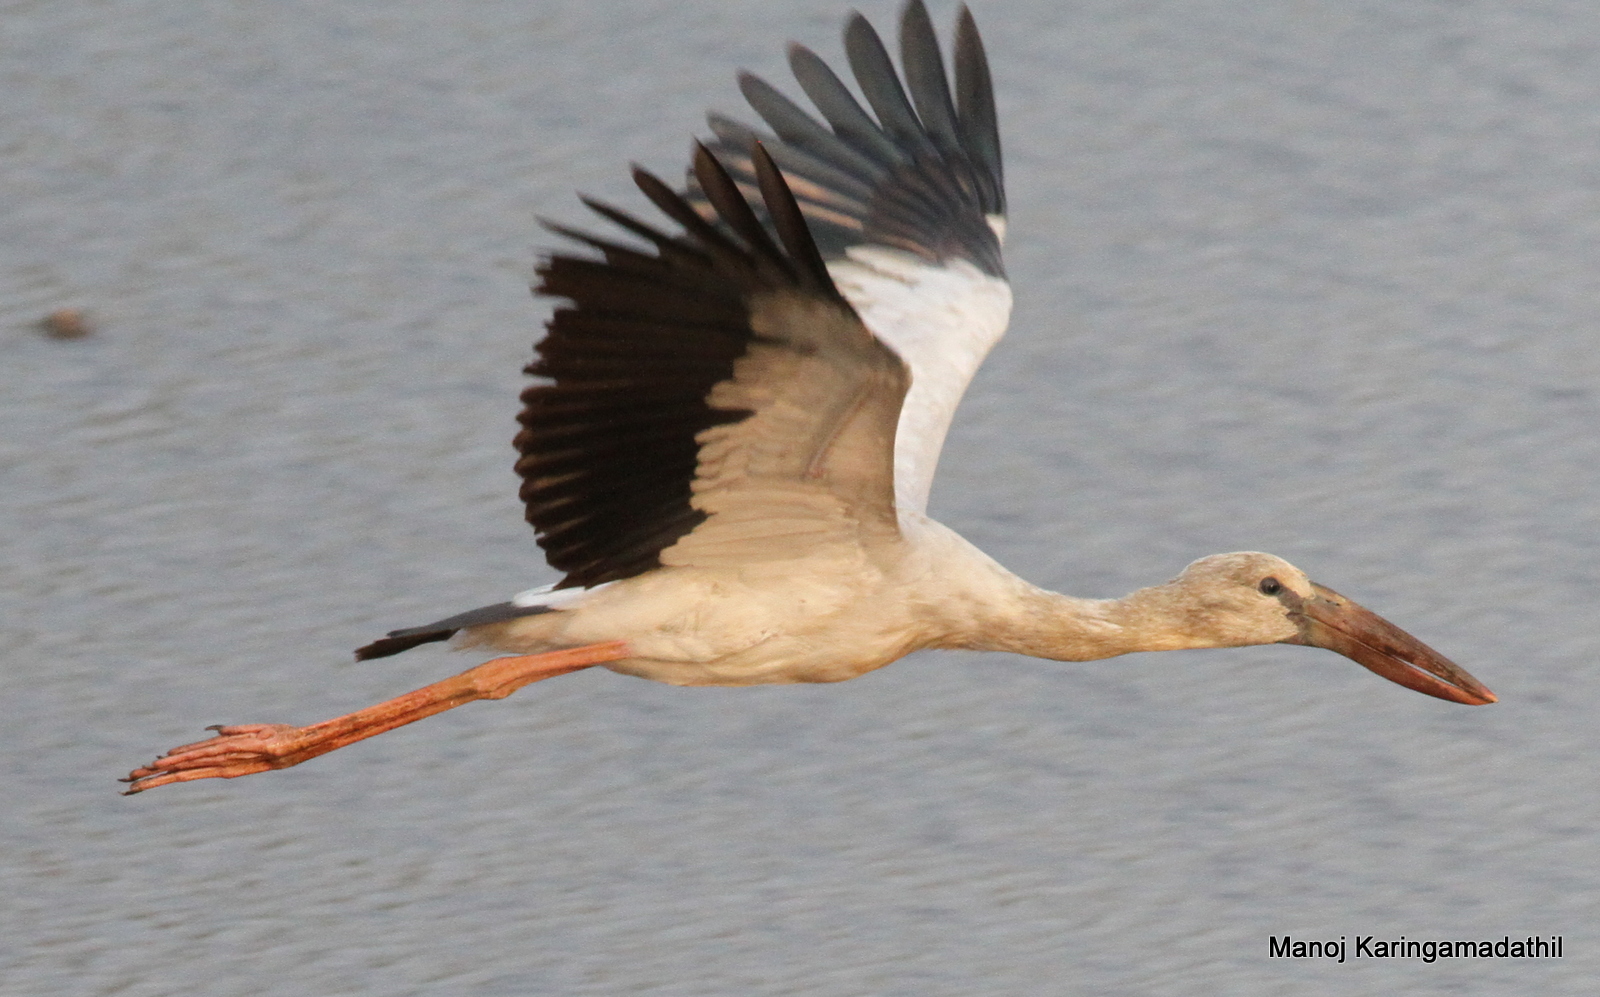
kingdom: Animalia
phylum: Chordata
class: Aves
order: Ciconiiformes
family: Ciconiidae
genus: Anastomus
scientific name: Anastomus oscitans
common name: Asian openbill
